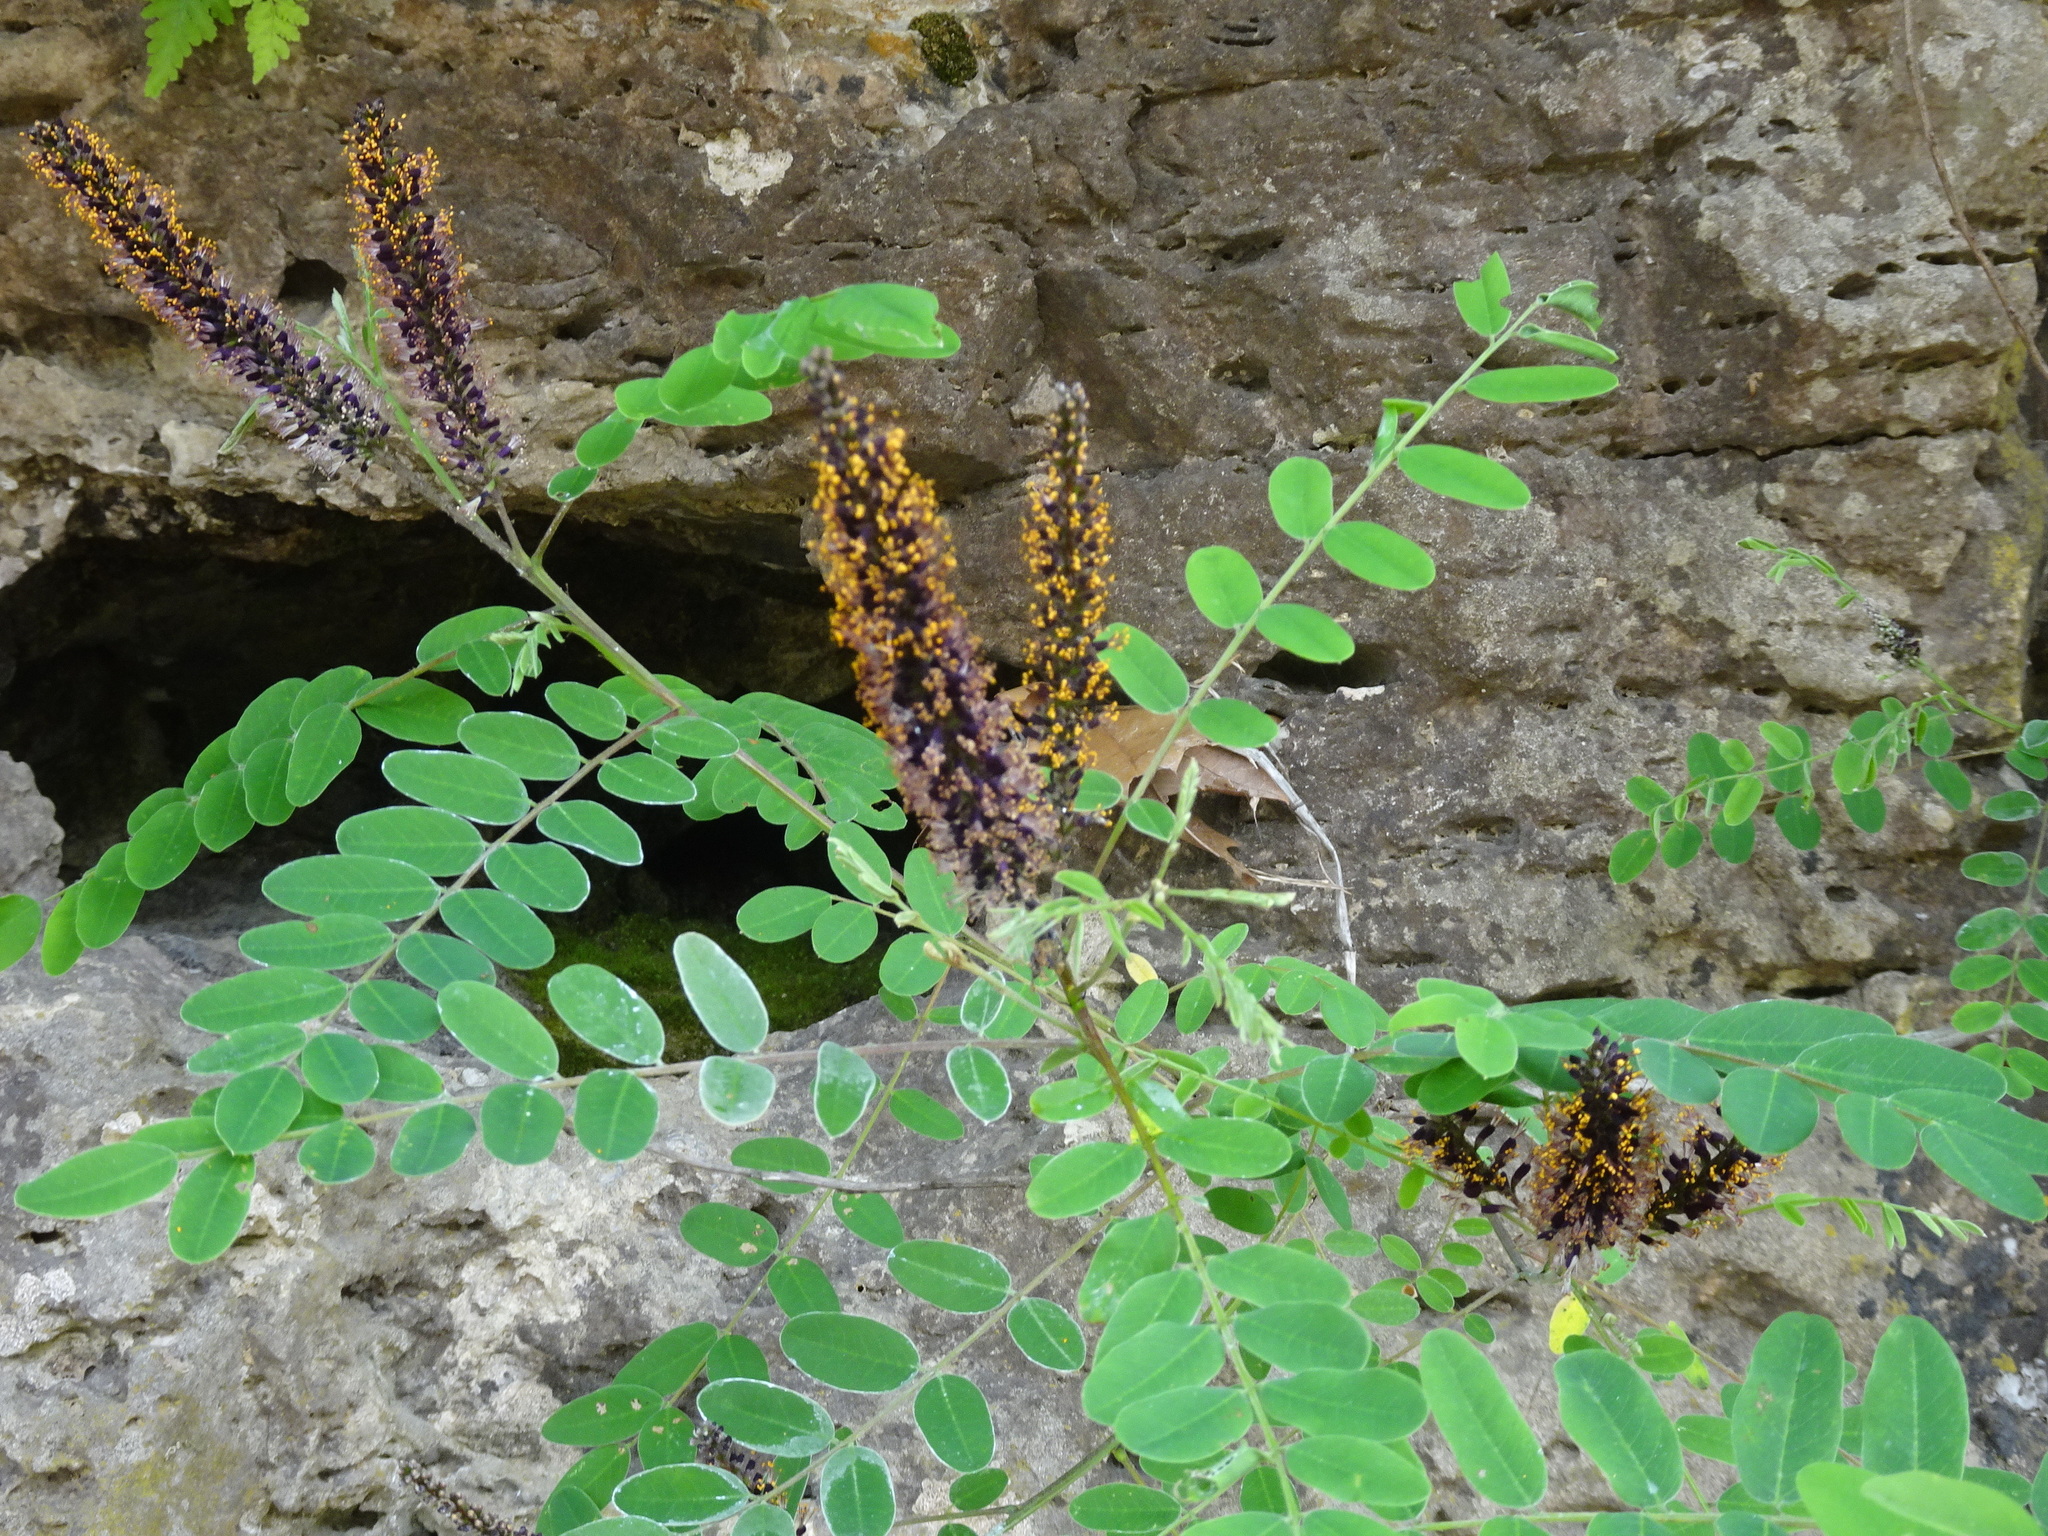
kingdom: Plantae
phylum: Tracheophyta
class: Magnoliopsida
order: Fabales
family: Fabaceae
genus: Amorpha
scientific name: Amorpha fruticosa
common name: False indigo
